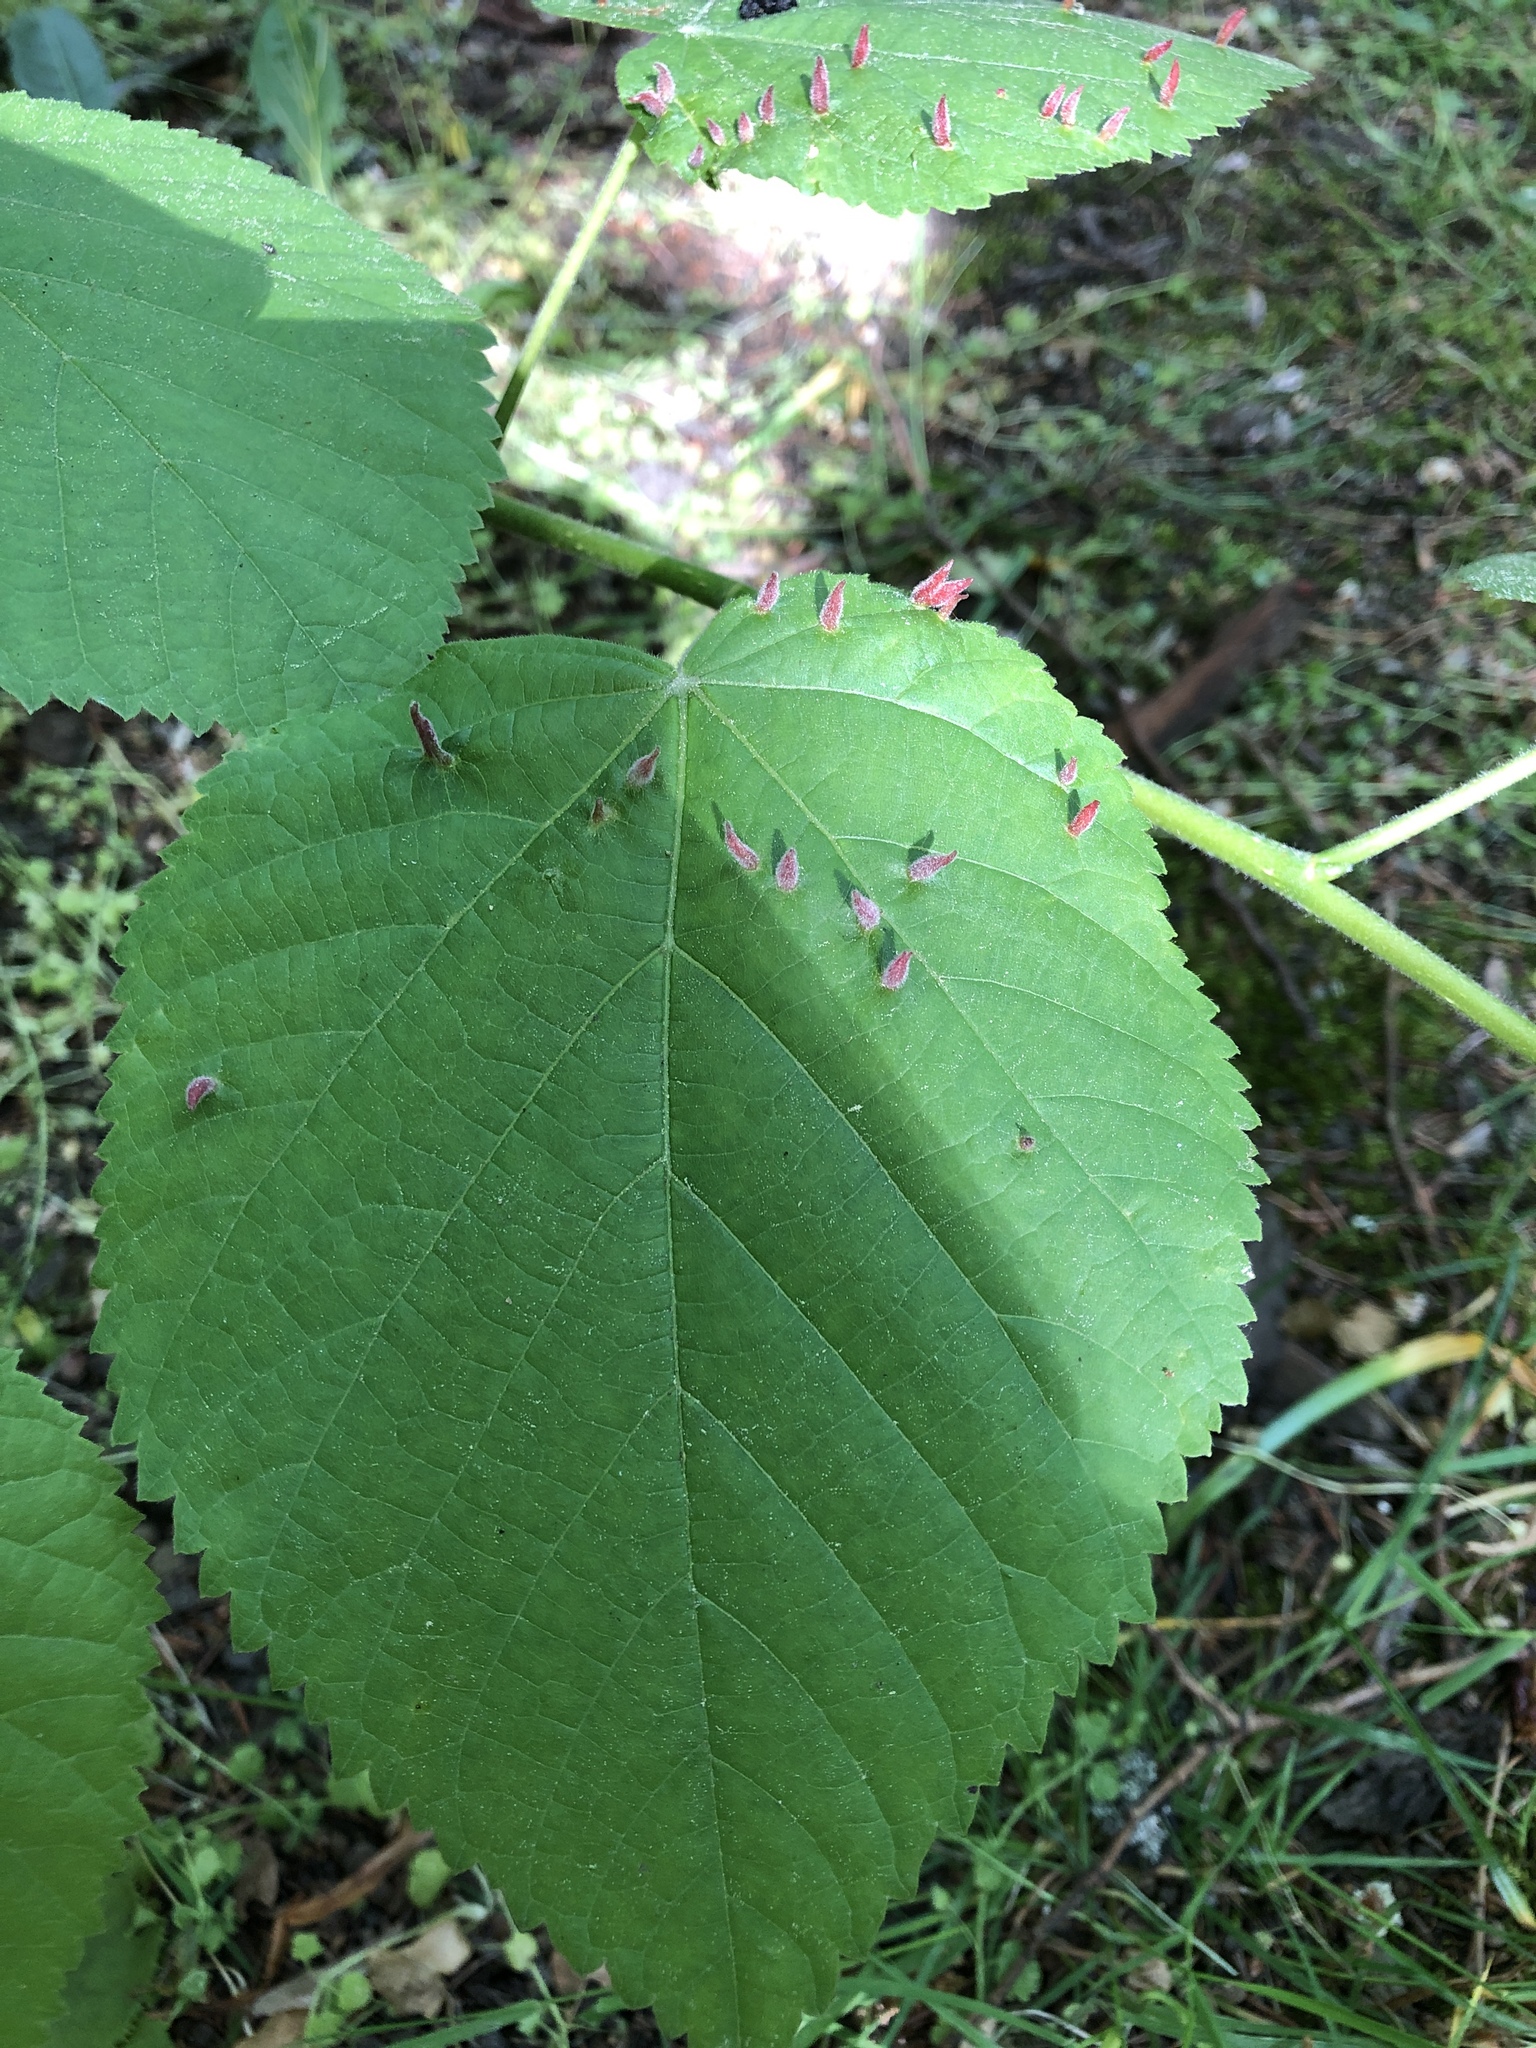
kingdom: Animalia
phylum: Arthropoda
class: Arachnida
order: Trombidiformes
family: Eriophyidae
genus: Eriophyes
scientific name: Eriophyes tiliae
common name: Red nail gall mite
